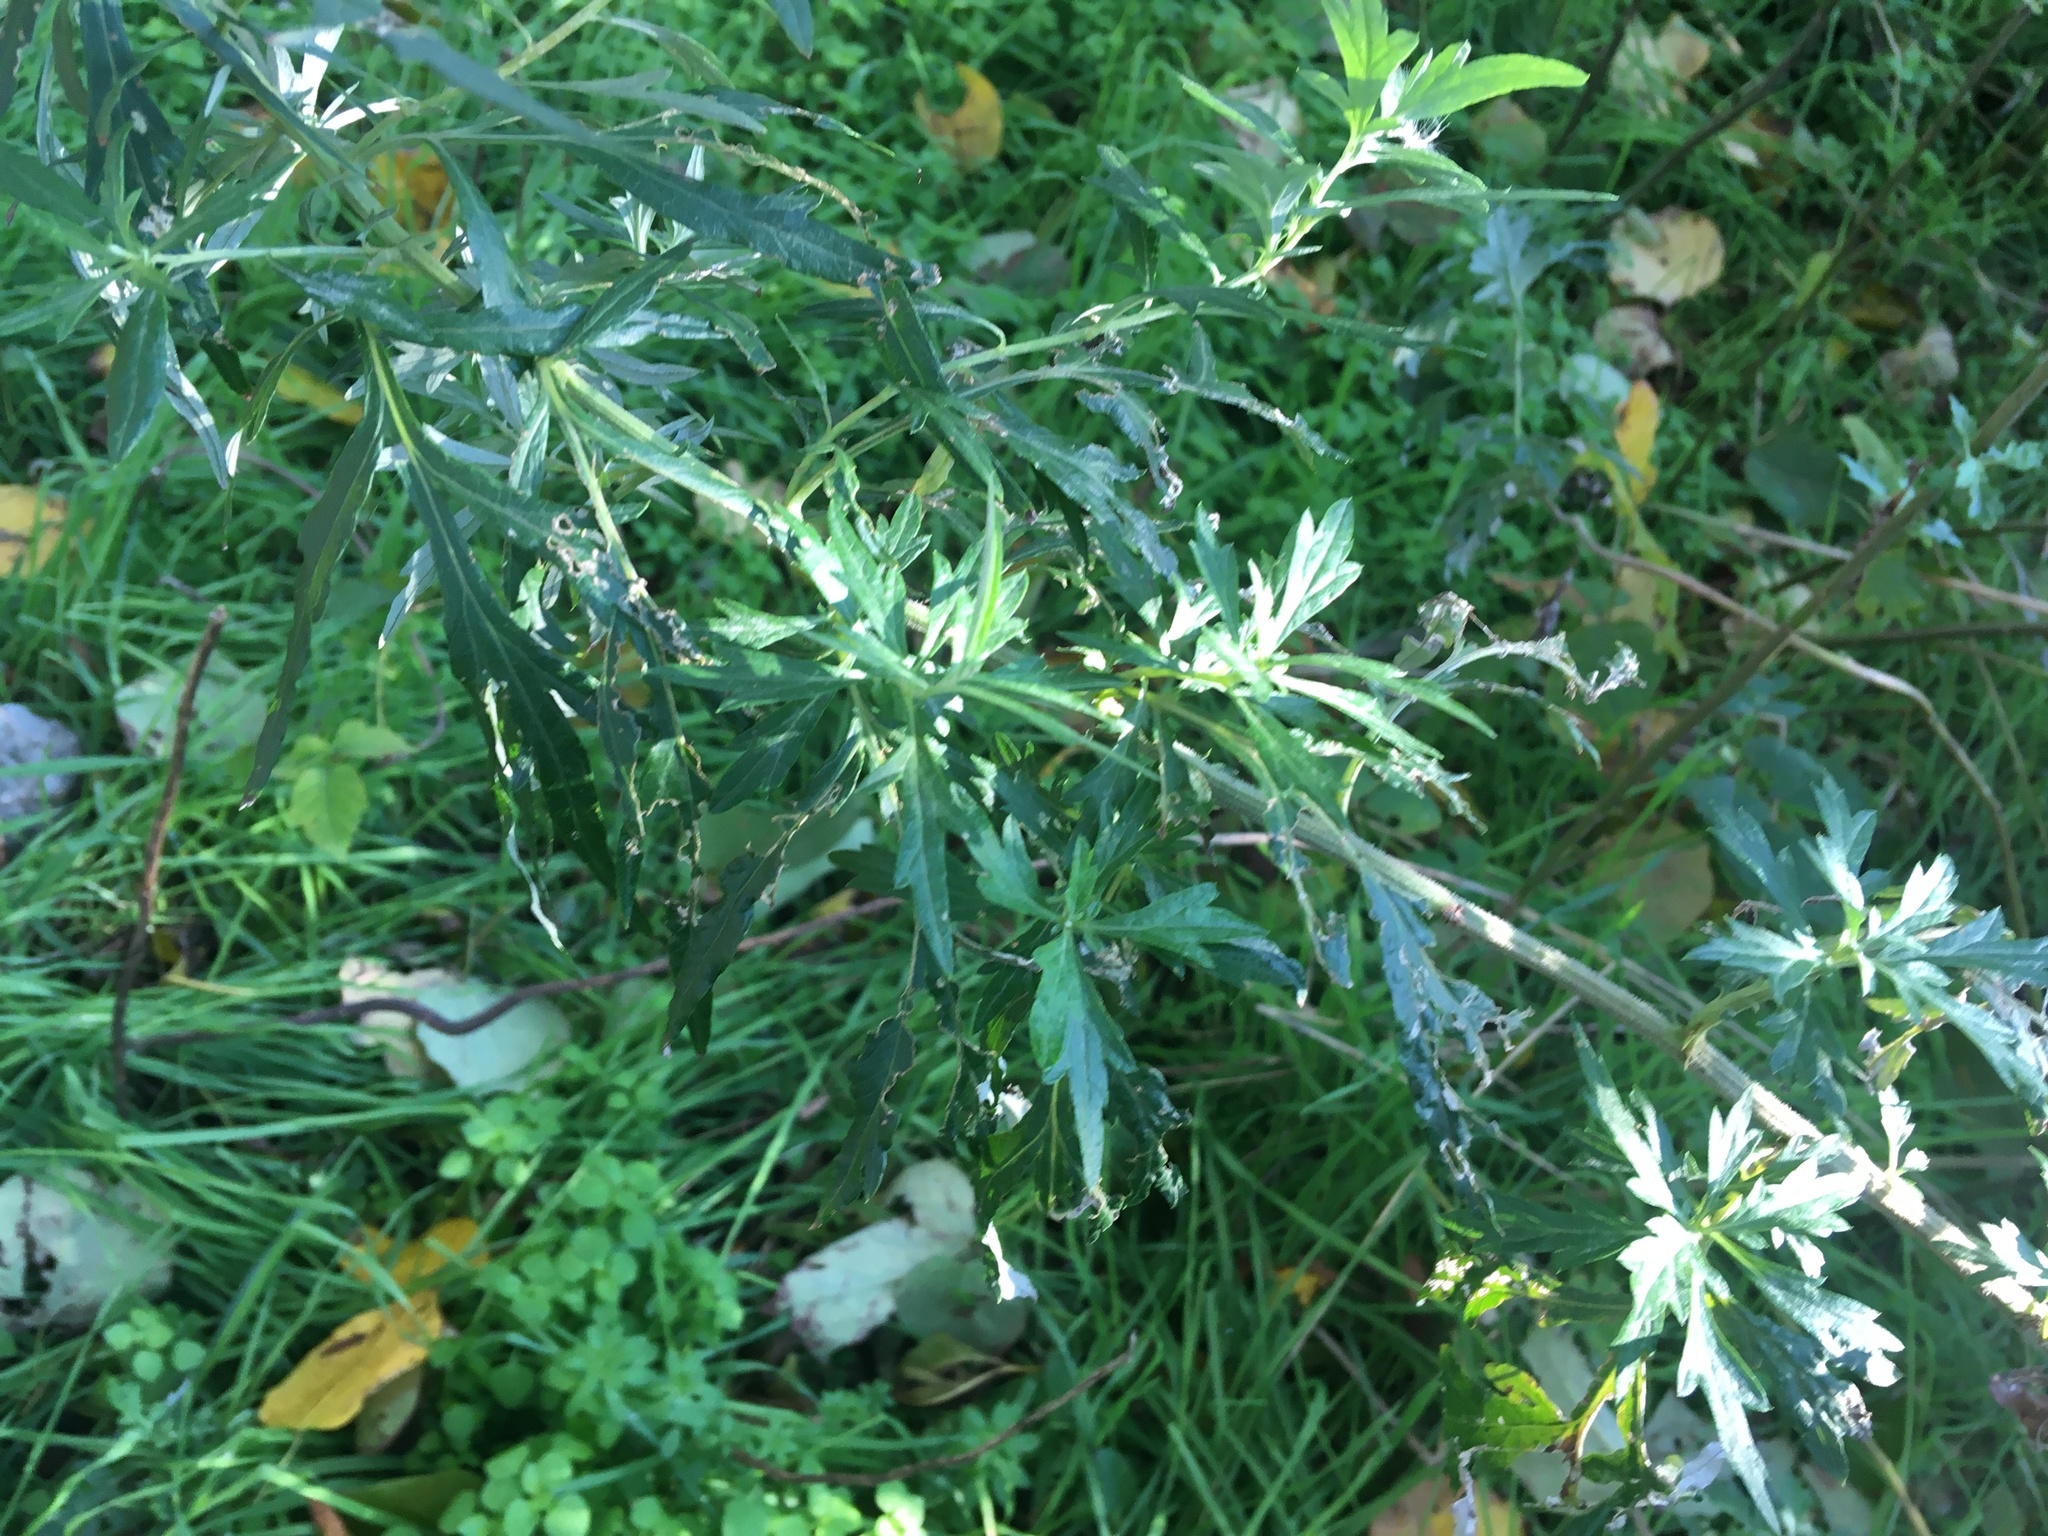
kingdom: Plantae
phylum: Tracheophyta
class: Magnoliopsida
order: Asterales
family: Asteraceae
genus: Artemisia
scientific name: Artemisia vulgaris
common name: Mugwort
